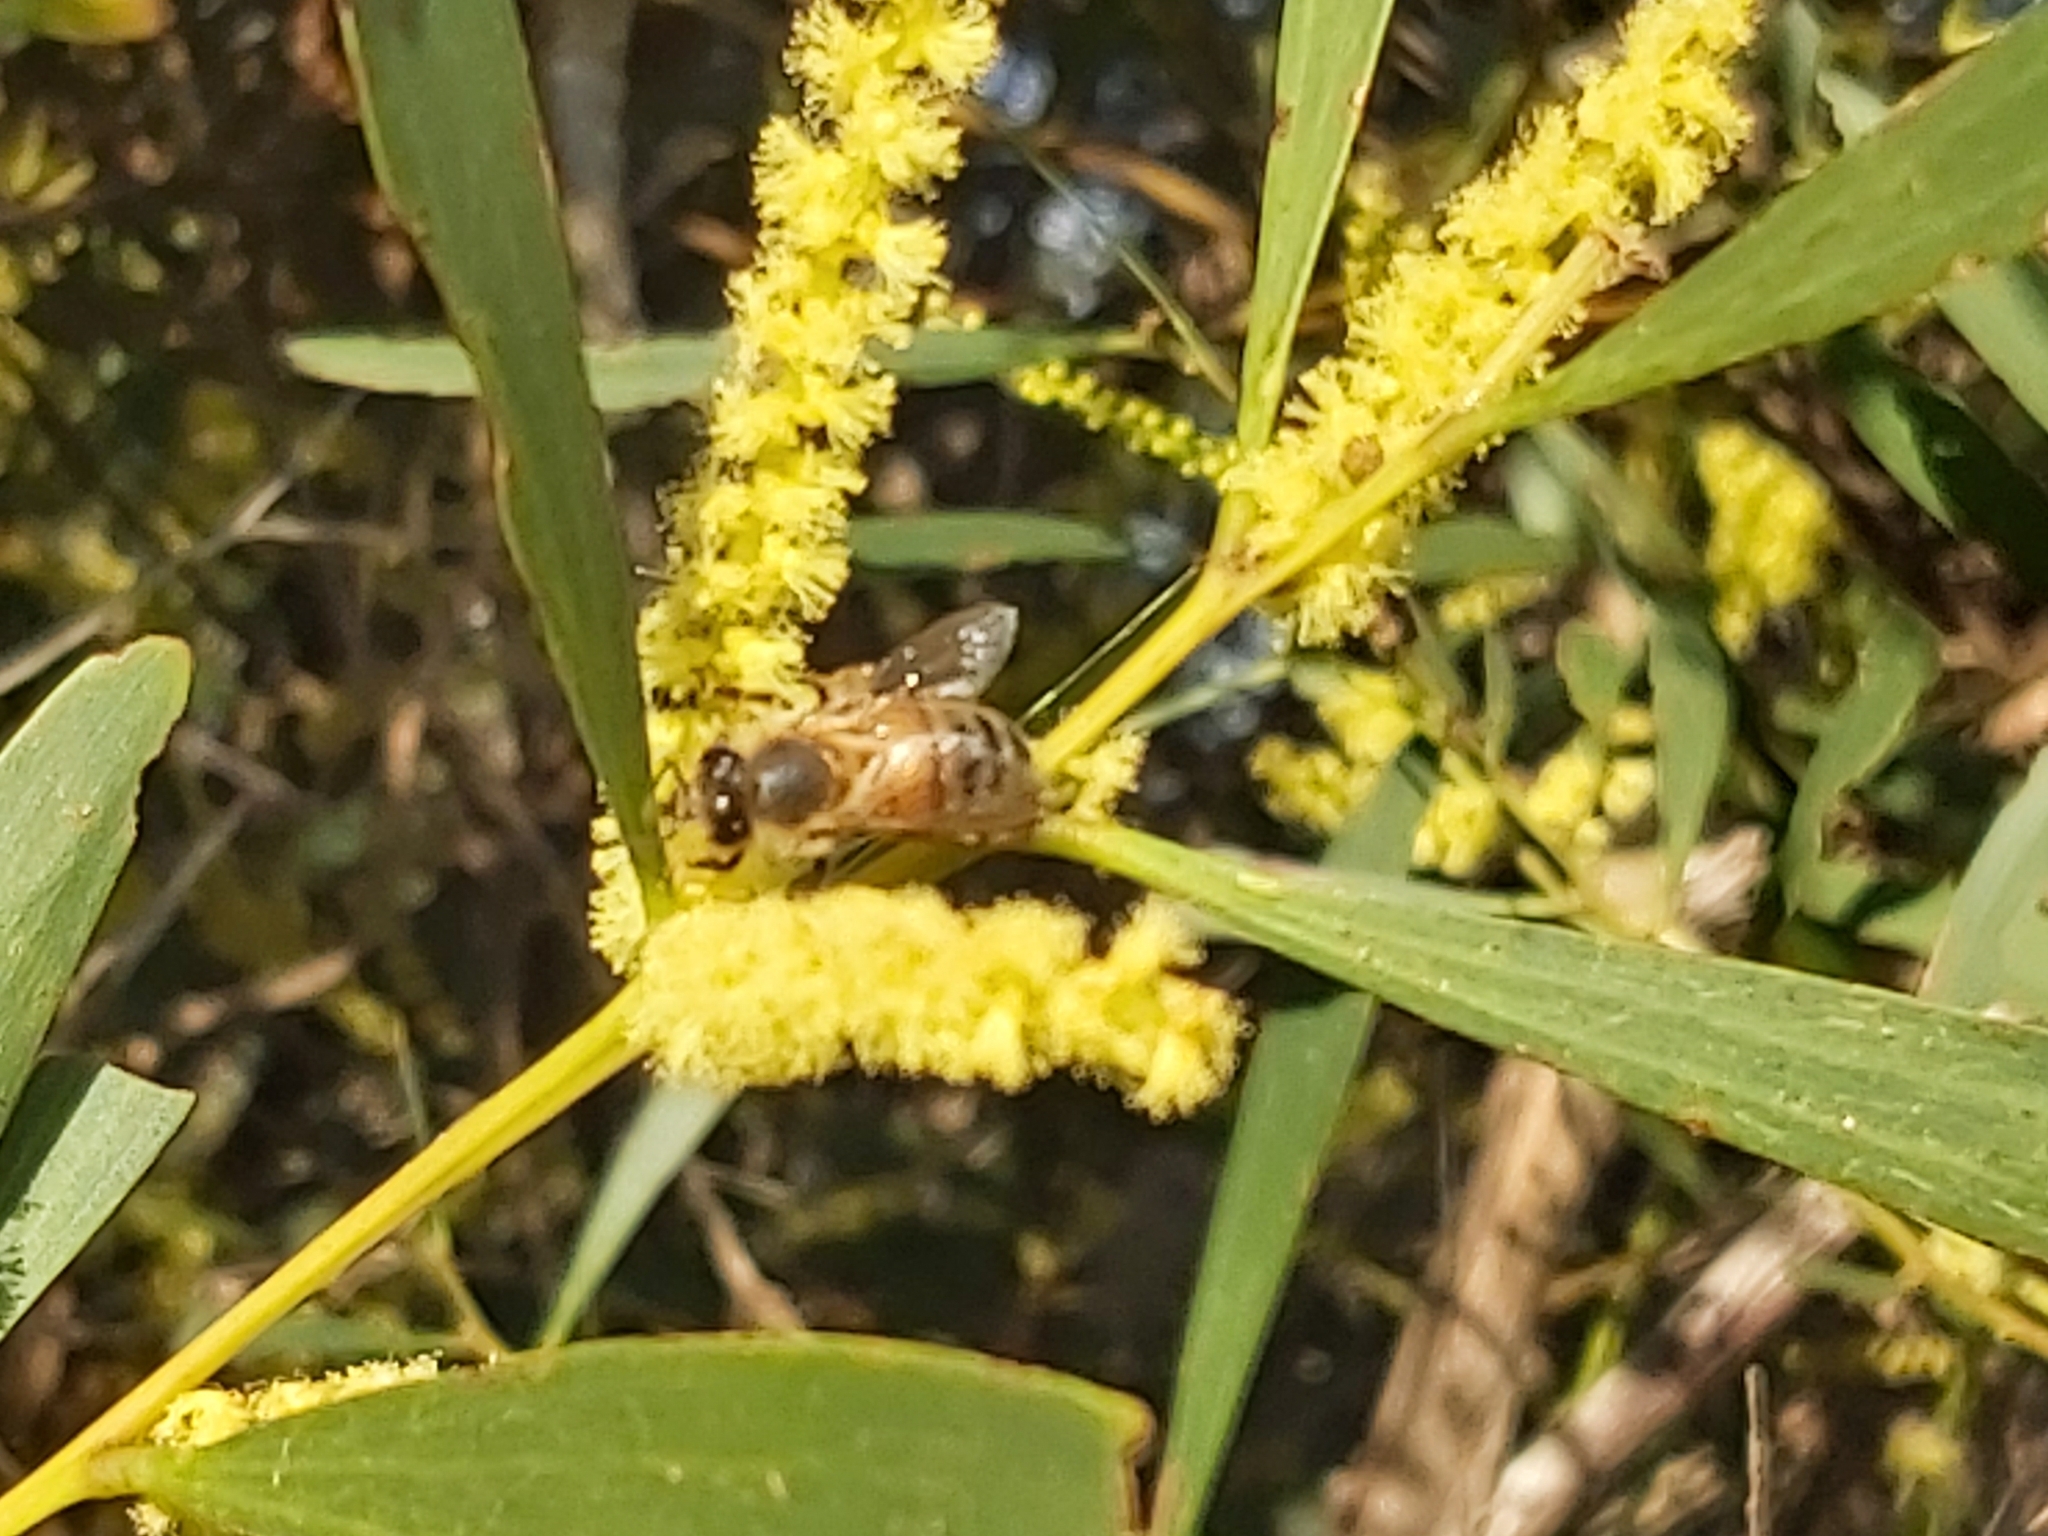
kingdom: Animalia
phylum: Arthropoda
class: Insecta
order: Hymenoptera
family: Apidae
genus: Apis
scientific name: Apis mellifera
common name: Honey bee
